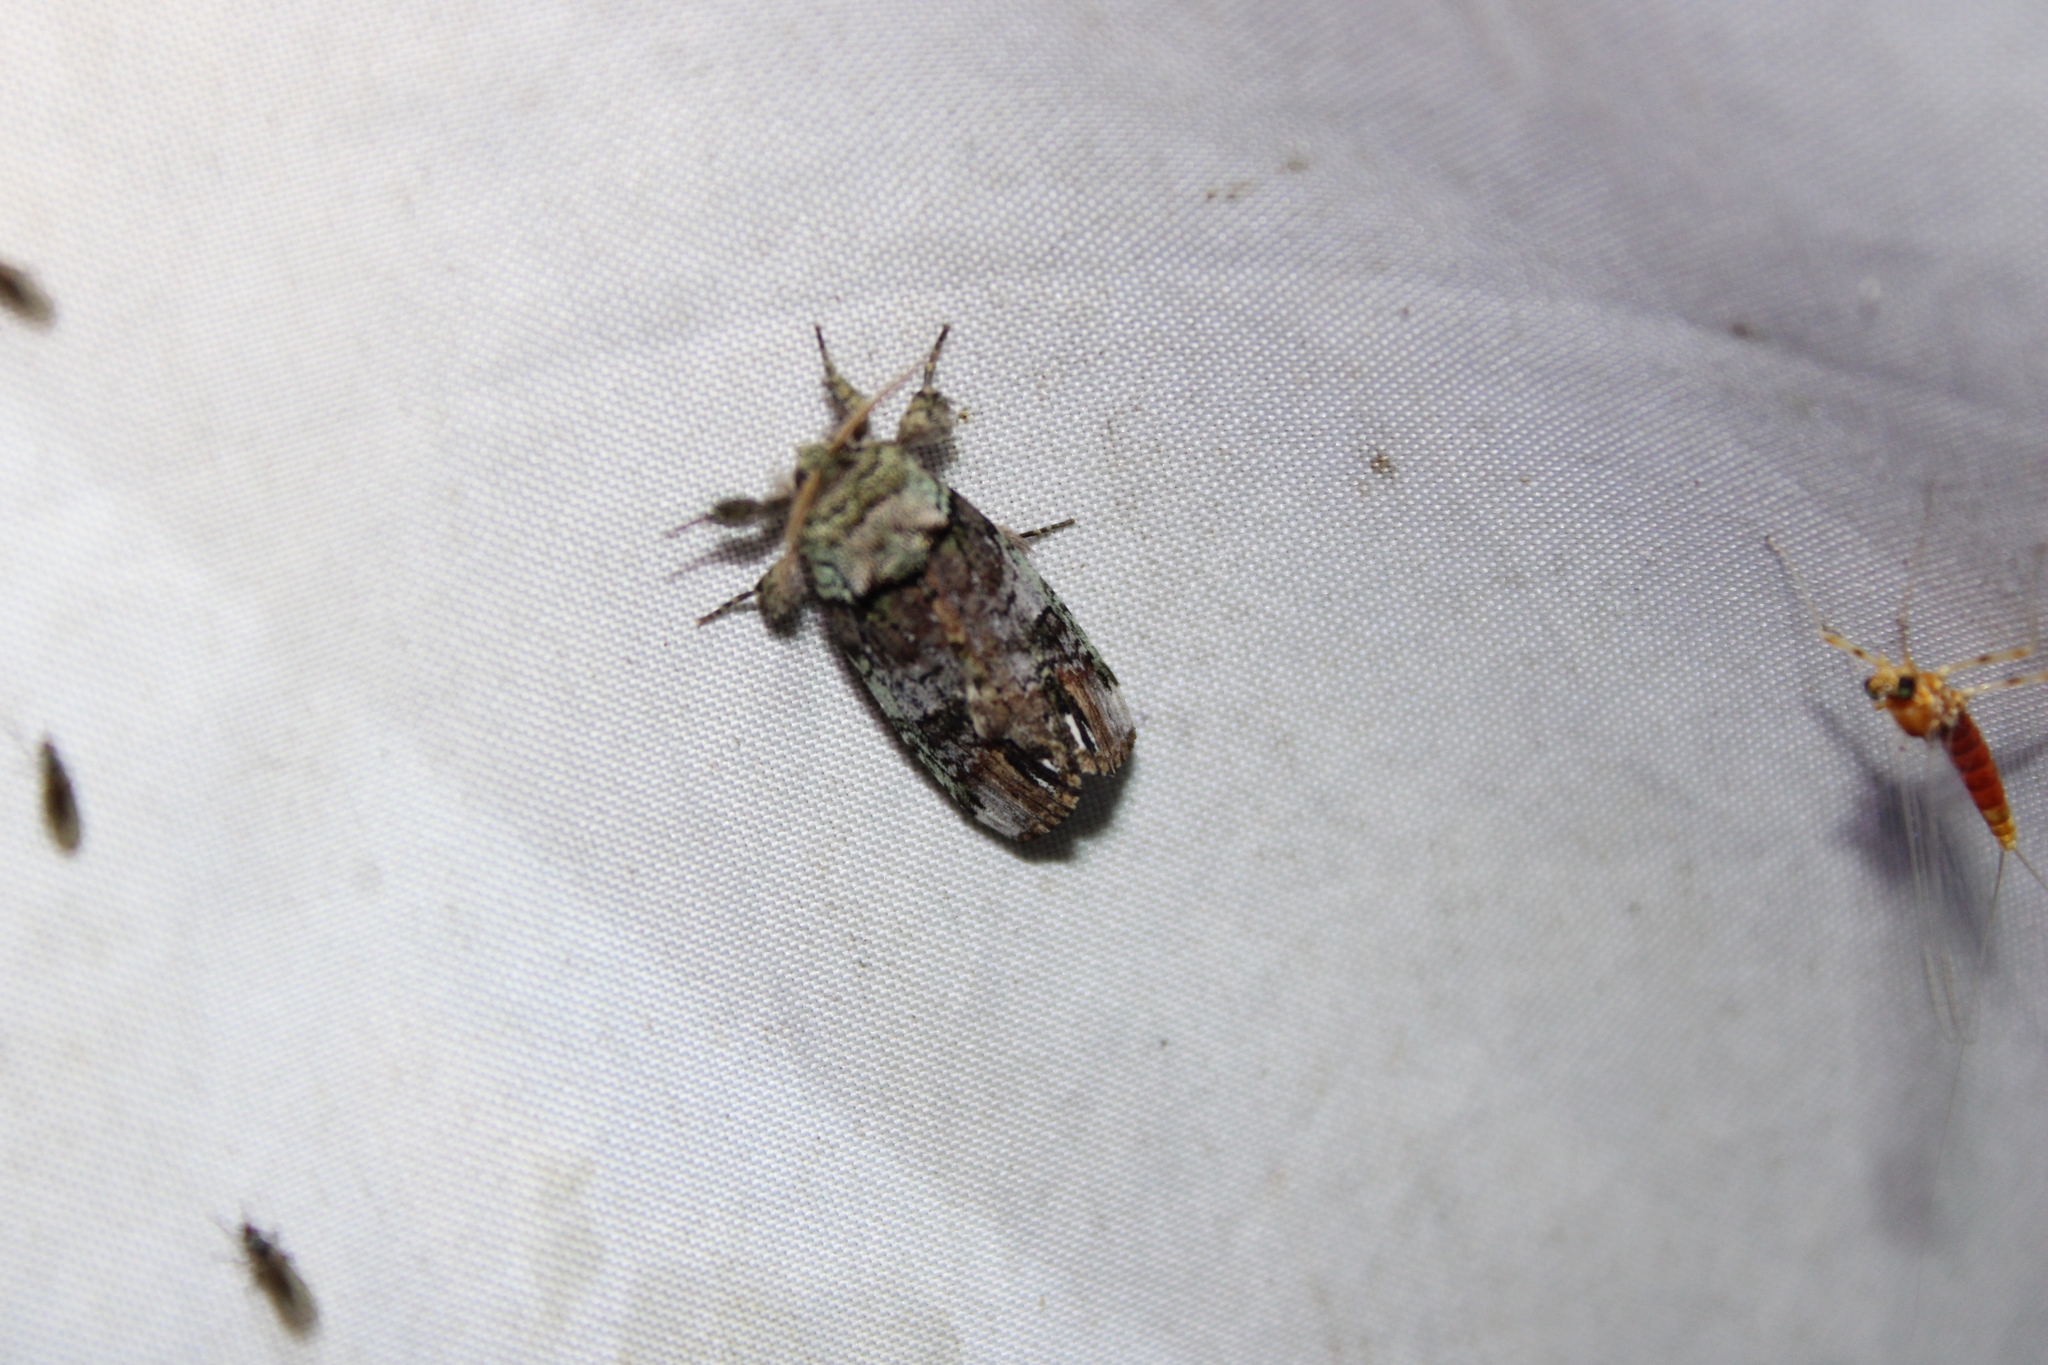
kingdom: Animalia
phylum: Arthropoda
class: Insecta
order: Lepidoptera
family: Notodontidae
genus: Schizura
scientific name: Schizura
